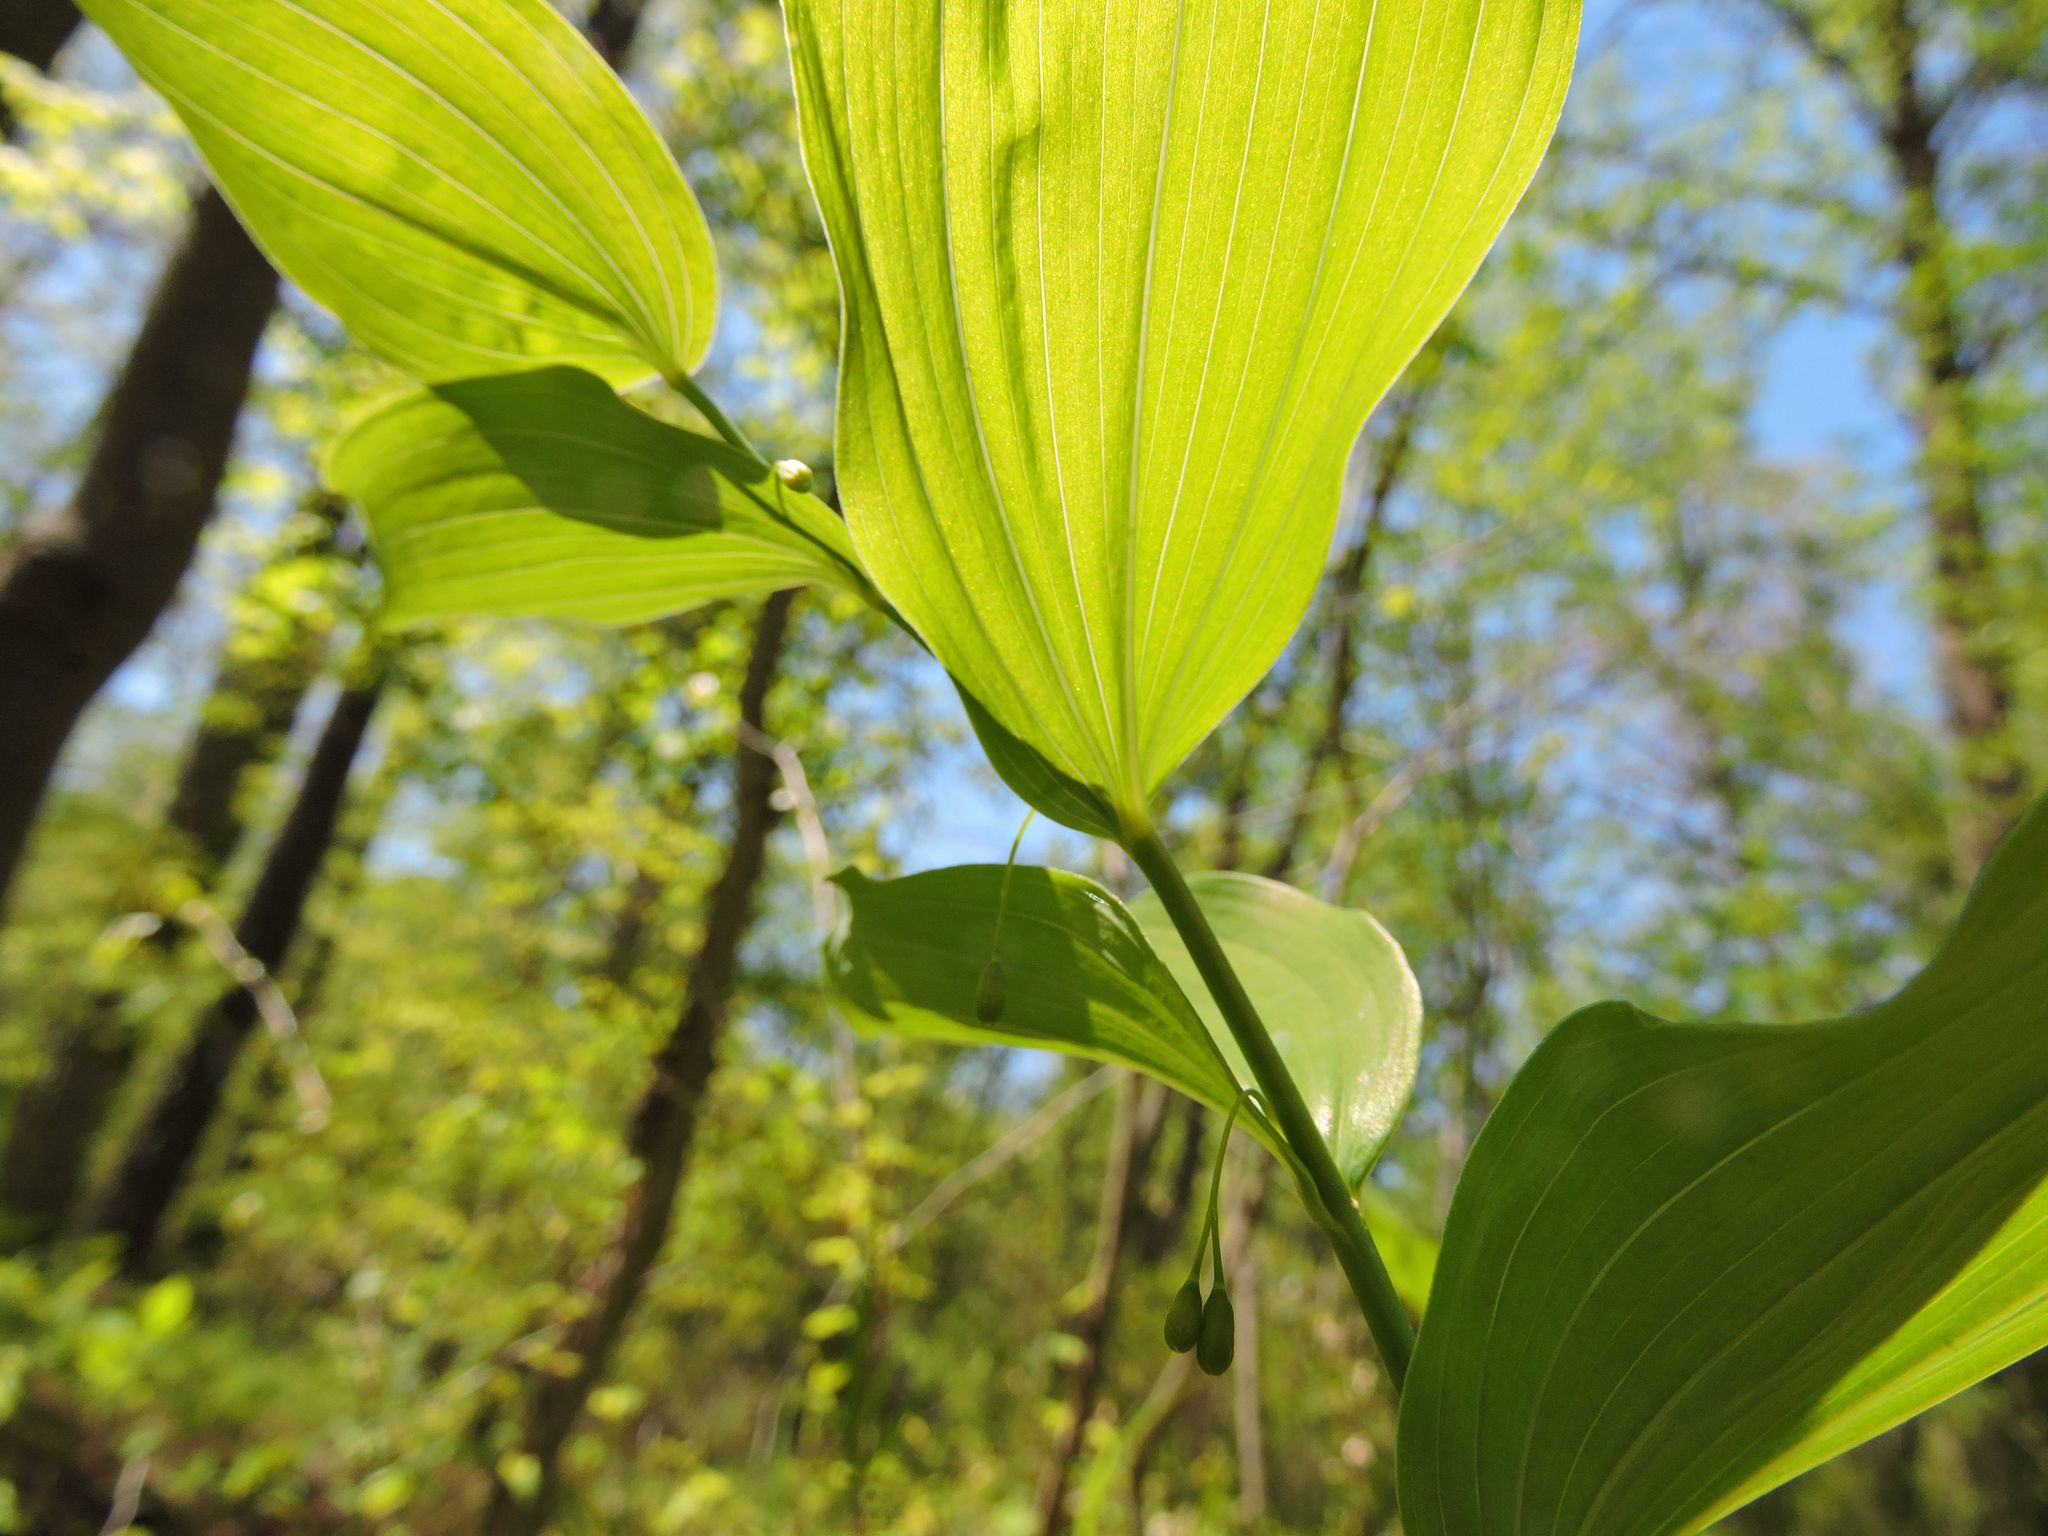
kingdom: Plantae
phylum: Tracheophyta
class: Liliopsida
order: Asparagales
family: Asparagaceae
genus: Polygonatum
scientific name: Polygonatum biflorum
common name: American solomon's-seal
